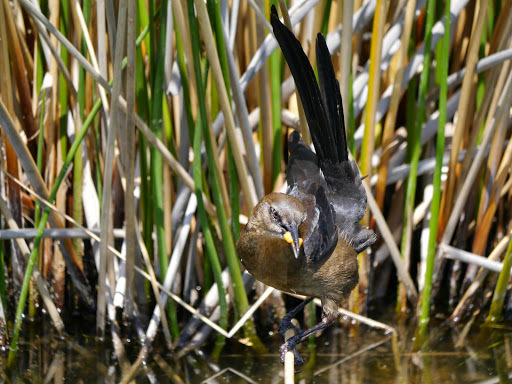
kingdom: Animalia
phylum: Chordata
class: Aves
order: Passeriformes
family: Icteridae
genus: Quiscalus
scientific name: Quiscalus mexicanus
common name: Great-tailed grackle
